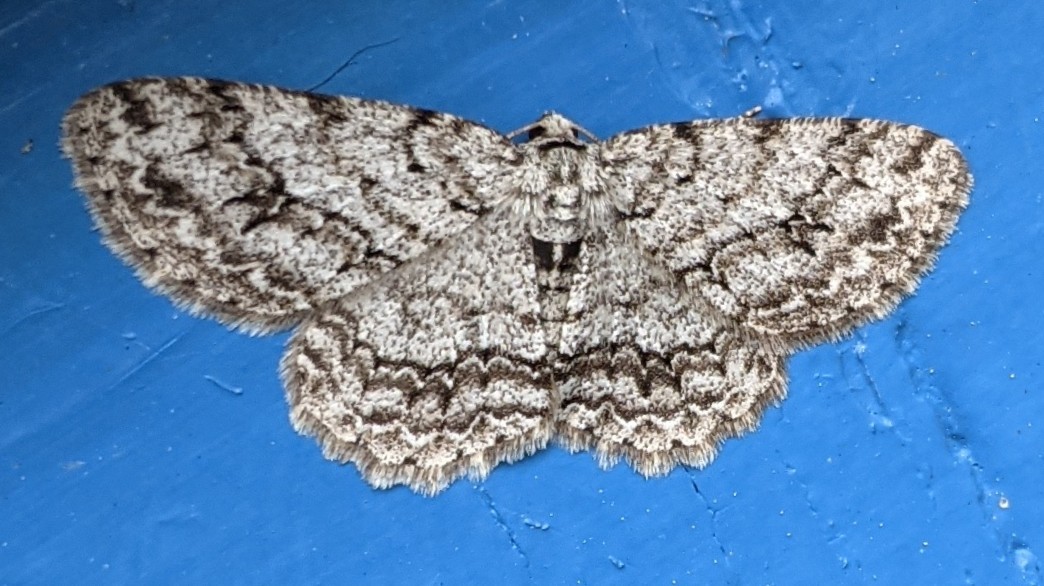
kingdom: Animalia
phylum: Arthropoda
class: Insecta
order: Lepidoptera
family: Geometridae
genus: Ectropis
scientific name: Ectropis crepuscularia
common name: Engrailed
